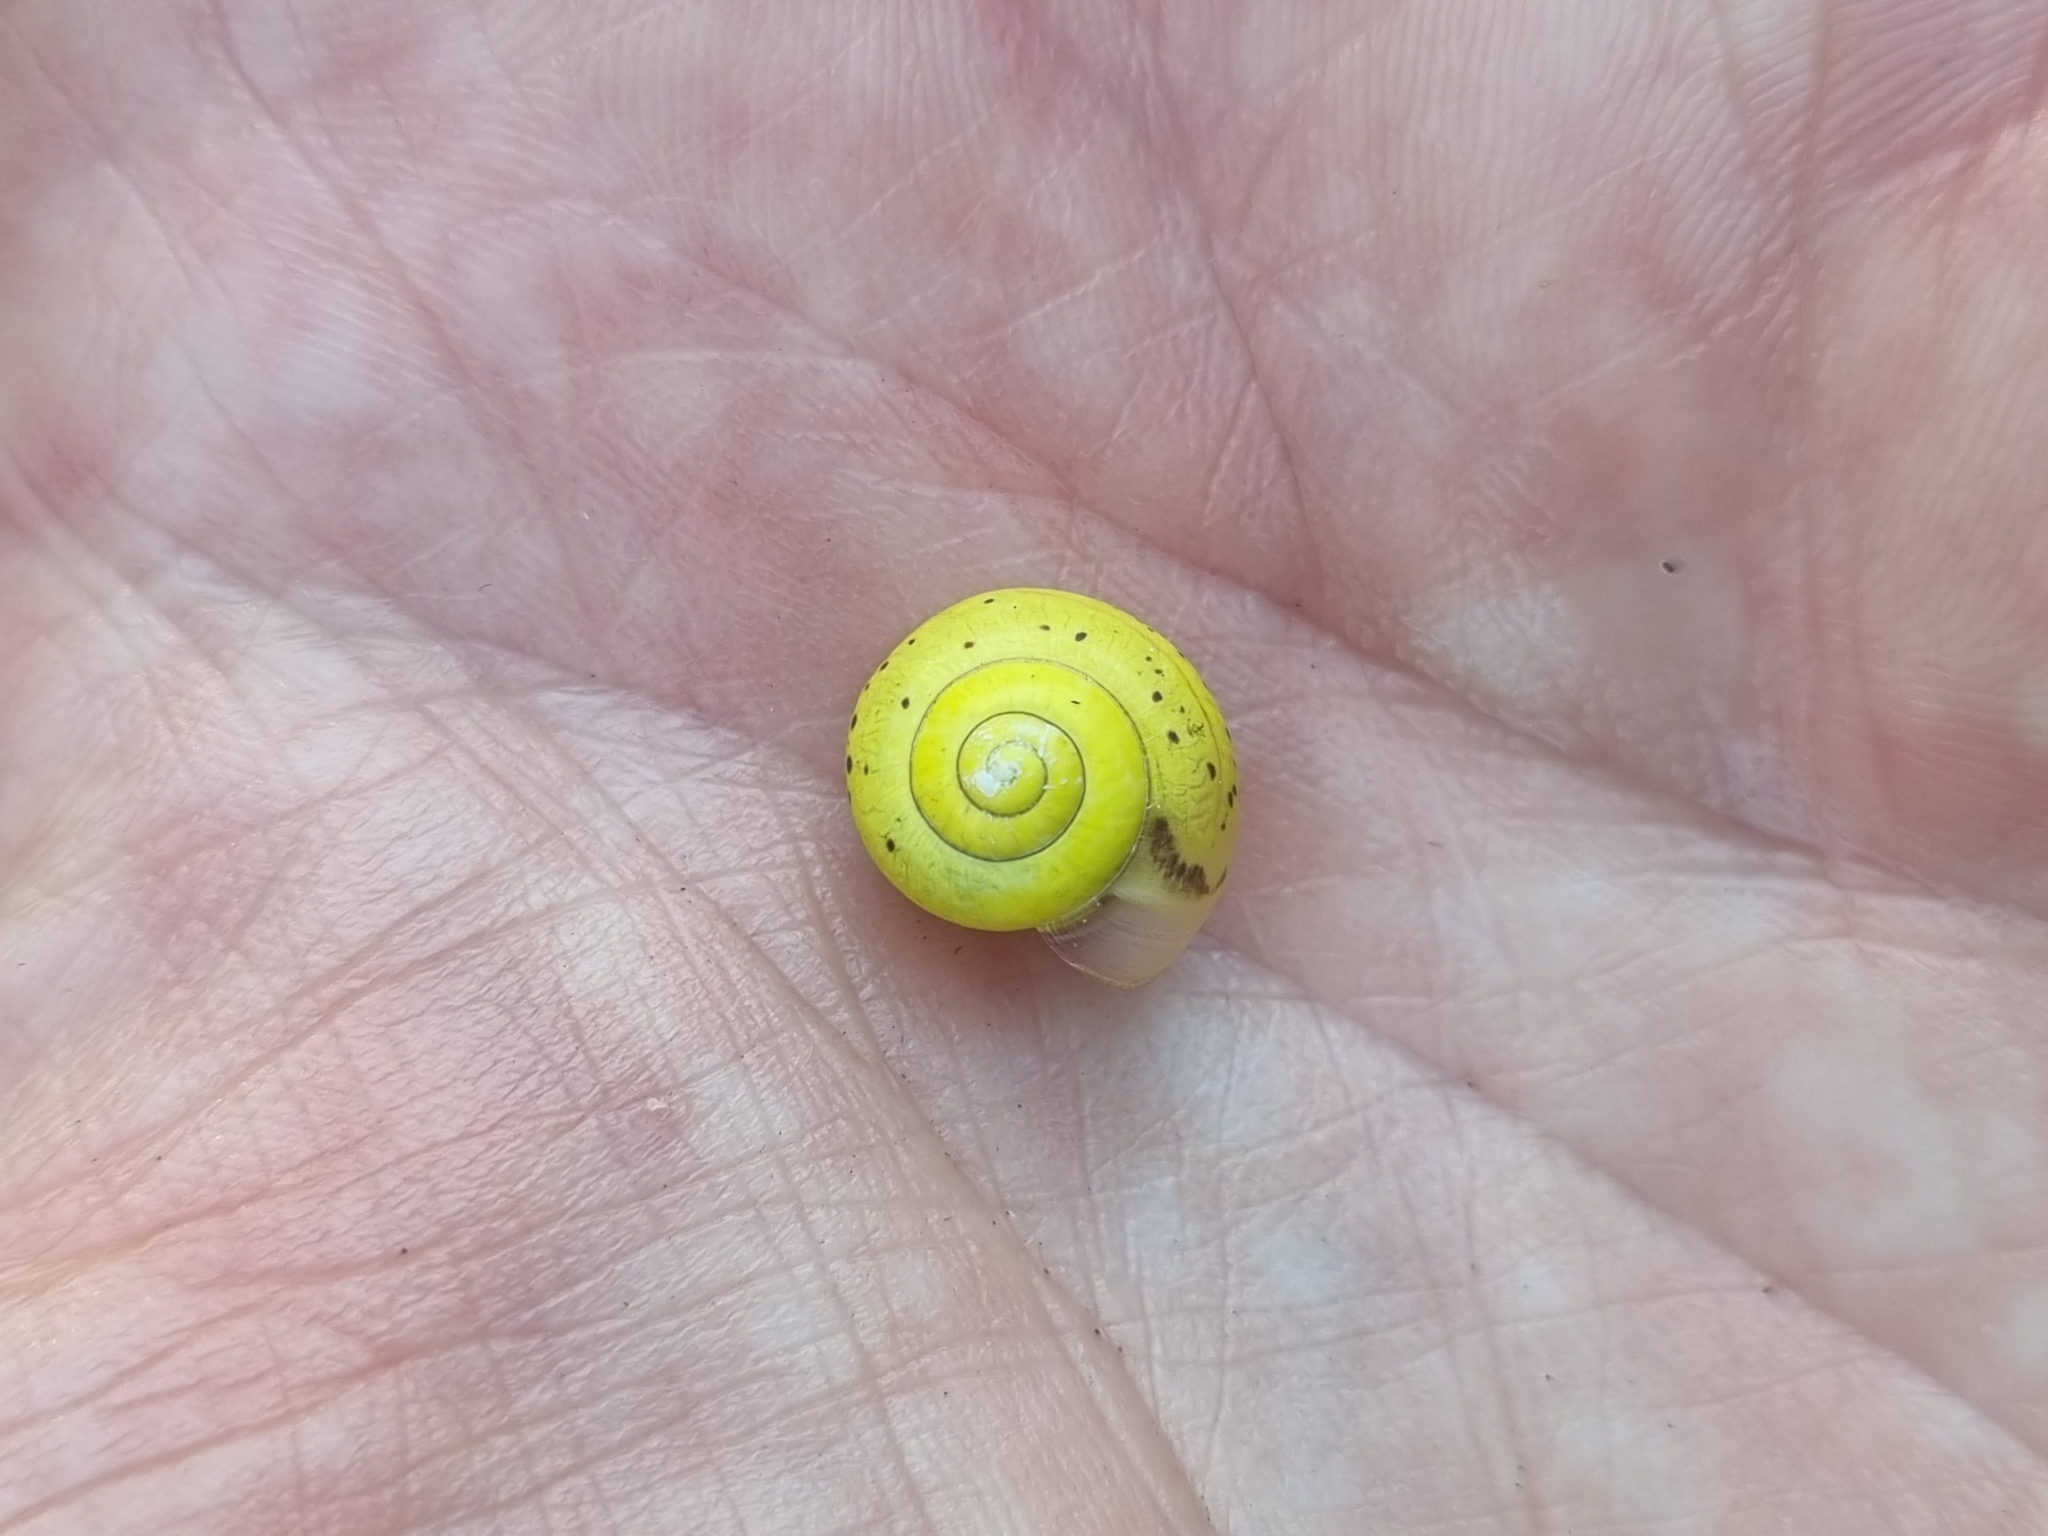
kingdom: Animalia
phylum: Mollusca
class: Gastropoda
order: Stylommatophora
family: Camaenidae
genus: Fruticicola
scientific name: Fruticicola fruticum
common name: Bush snail
